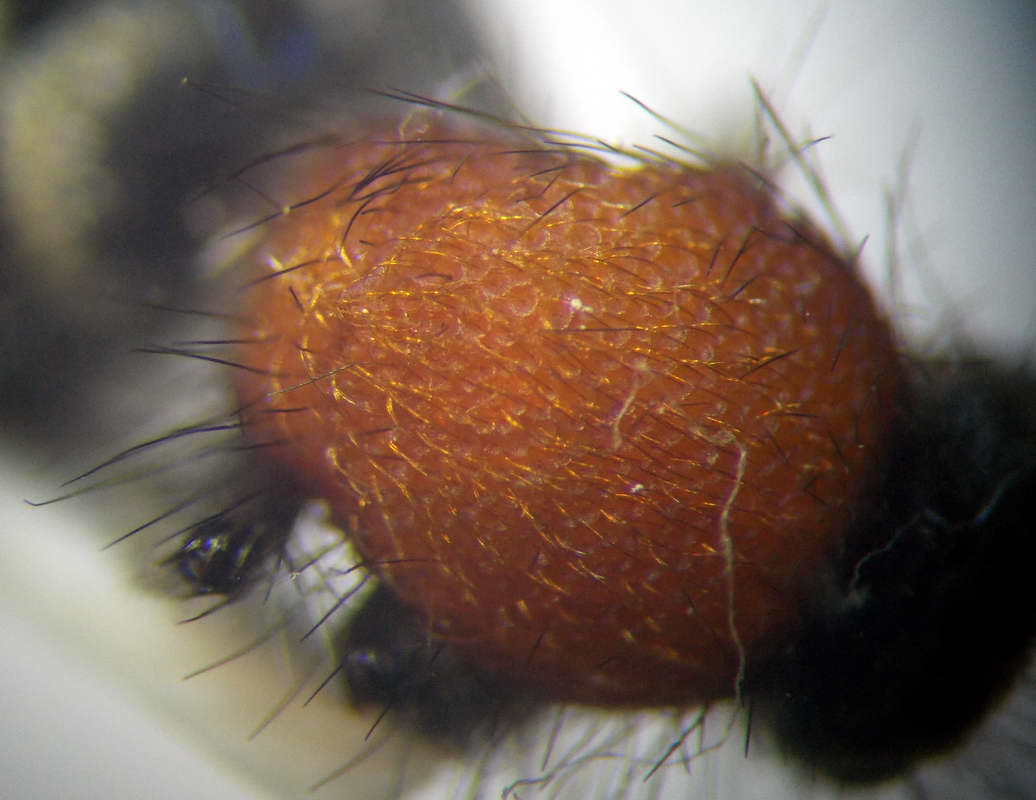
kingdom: Animalia
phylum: Arthropoda
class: Insecta
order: Hymenoptera
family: Mutillidae
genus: Dasylabris
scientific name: Dasylabris maura
